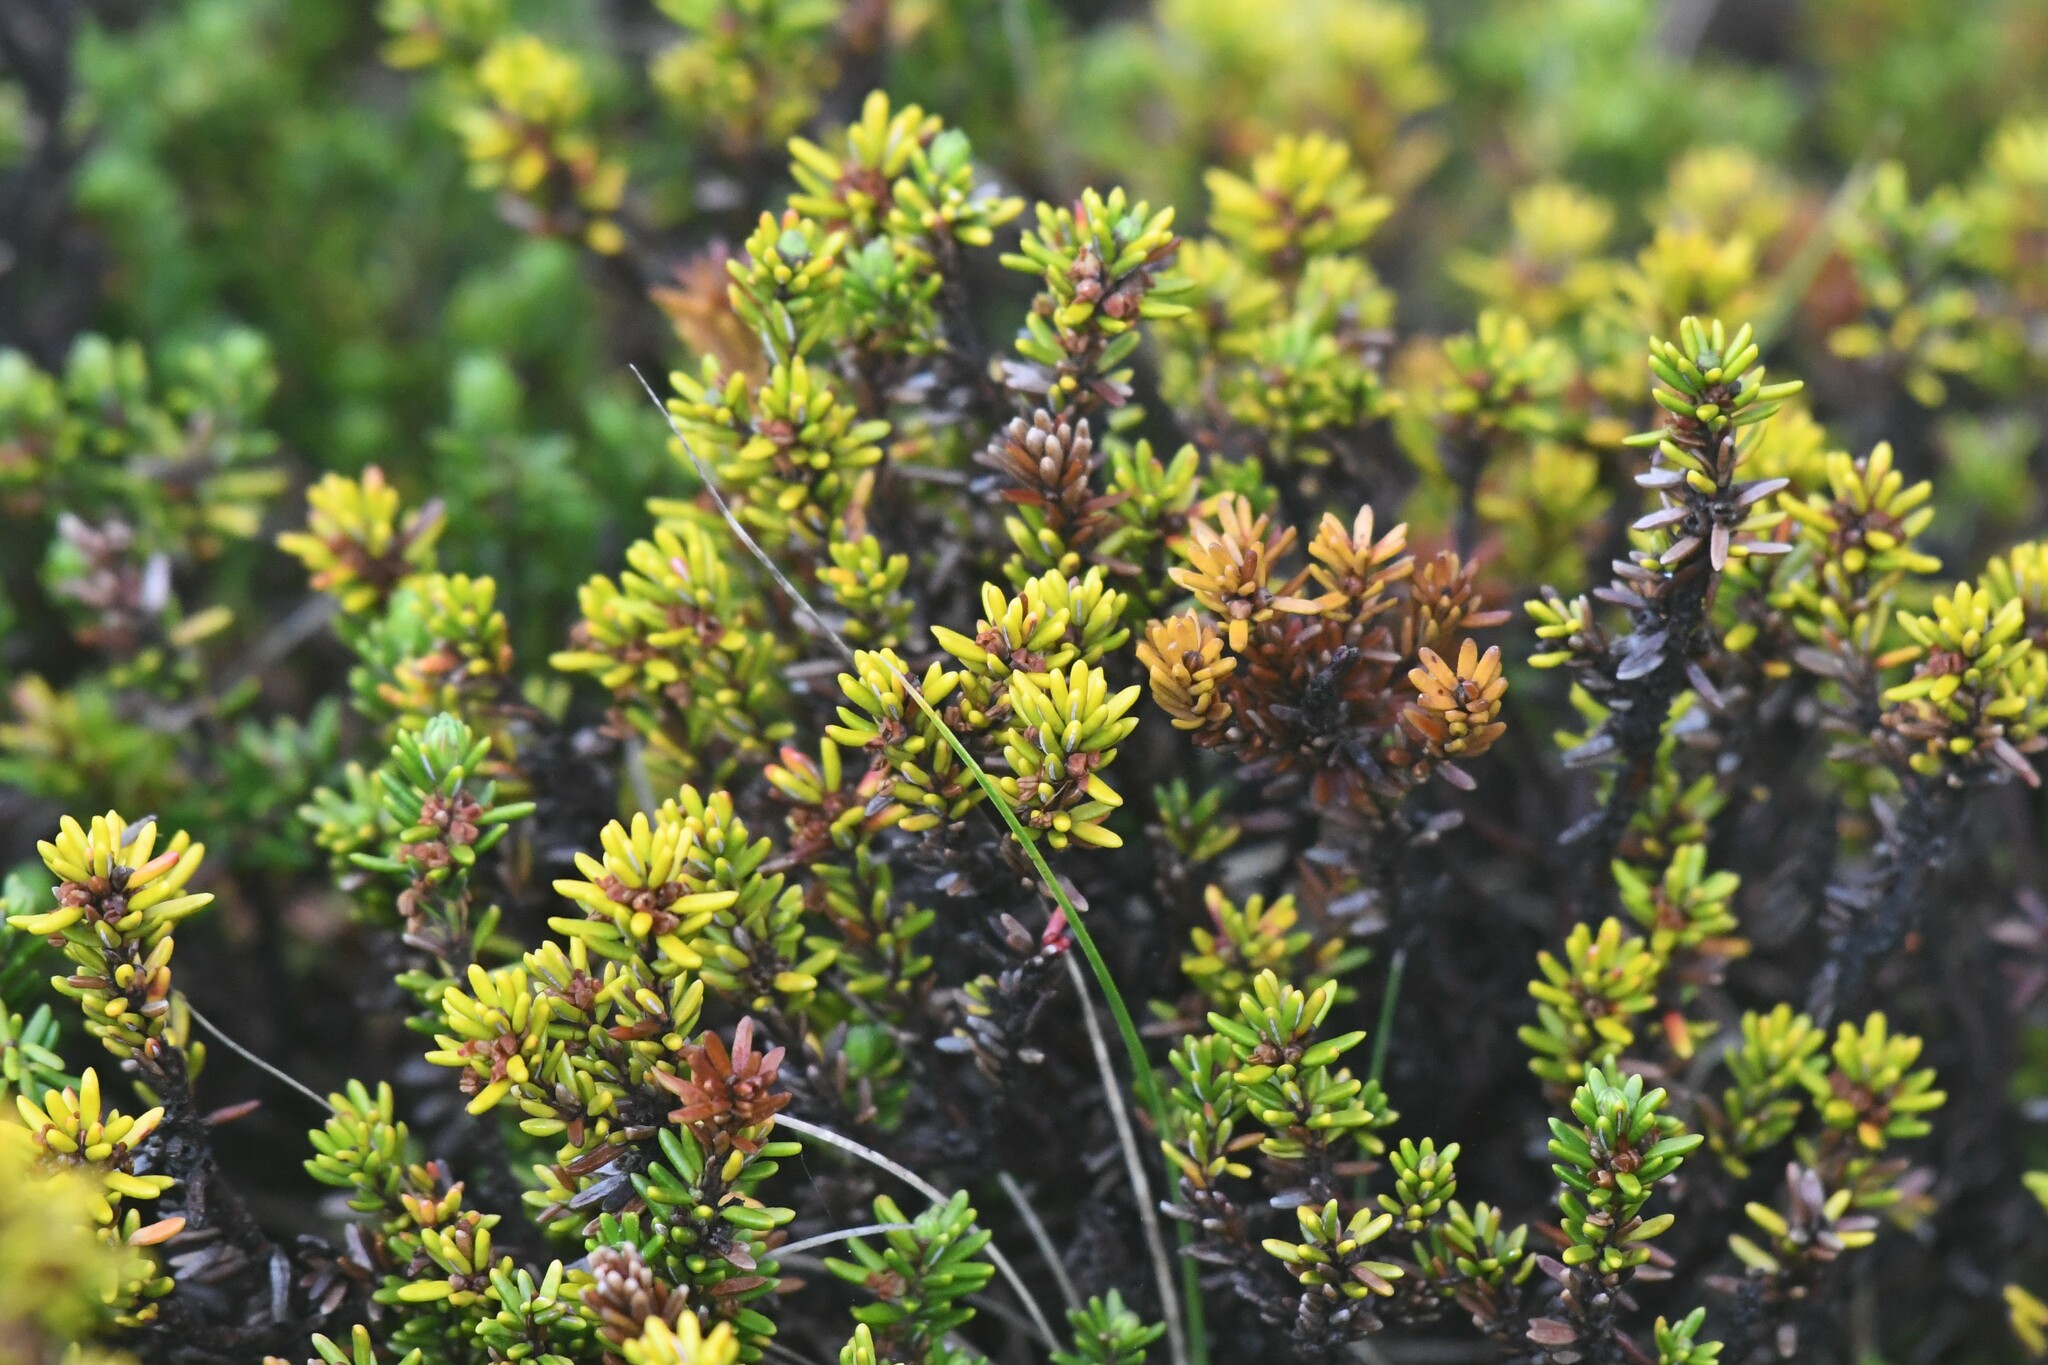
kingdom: Plantae
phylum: Tracheophyta
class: Magnoliopsida
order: Ericales
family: Ericaceae
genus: Empetrum
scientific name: Empetrum rubrum
